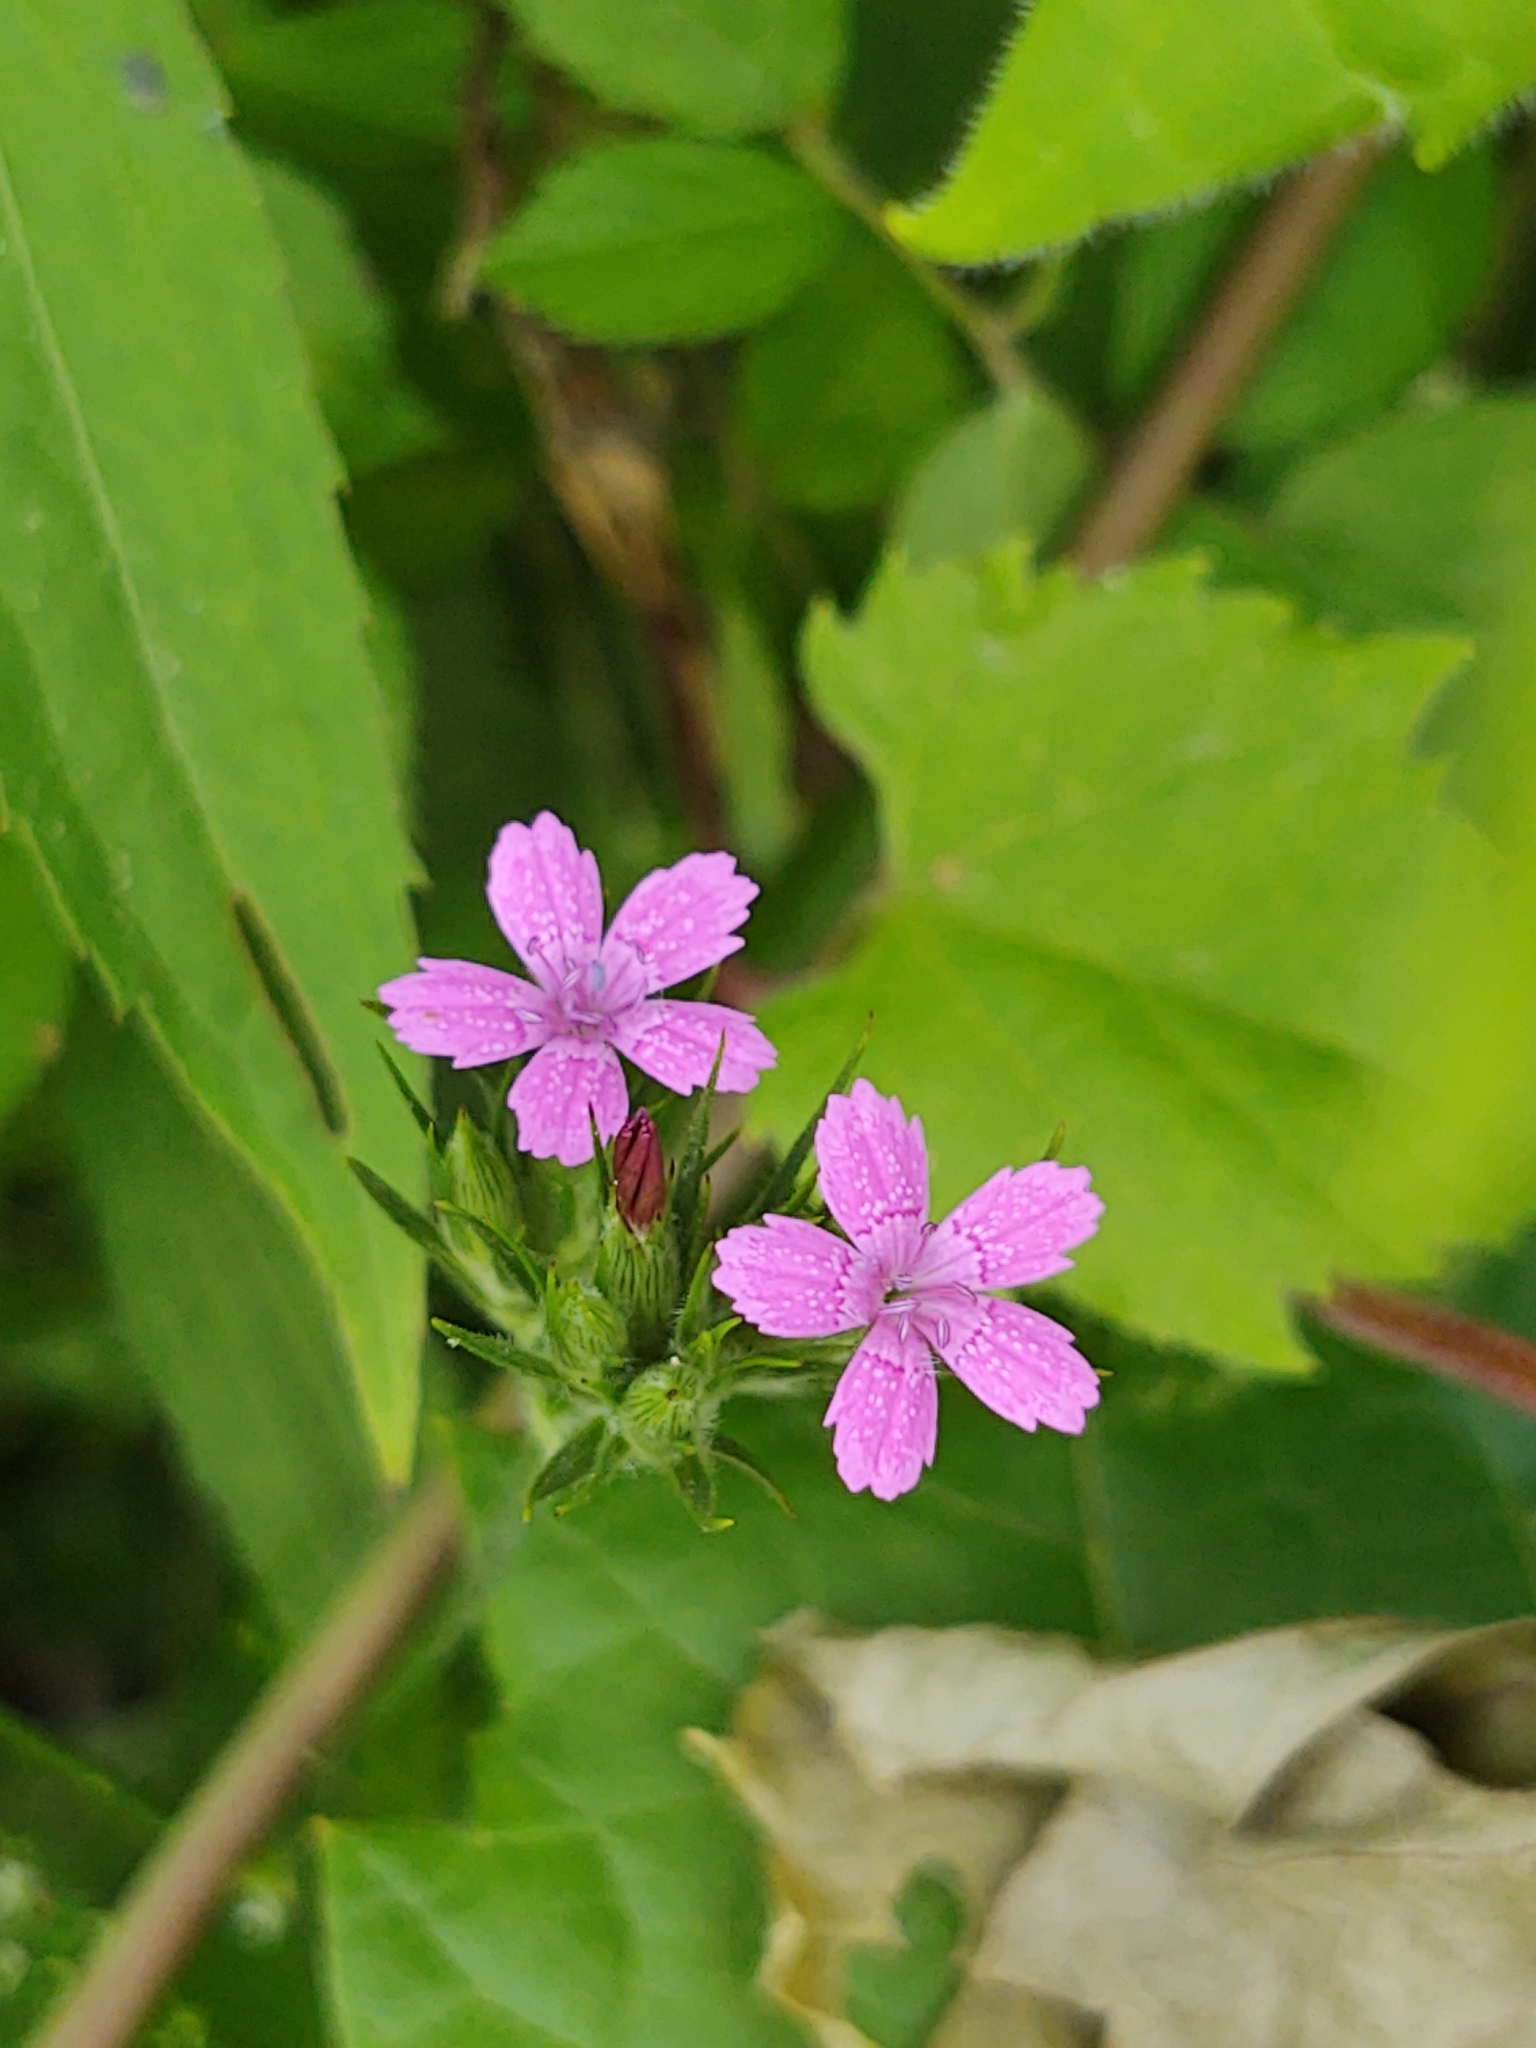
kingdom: Plantae
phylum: Tracheophyta
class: Magnoliopsida
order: Caryophyllales
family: Caryophyllaceae
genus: Dianthus
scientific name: Dianthus armeria
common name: Deptford pink
